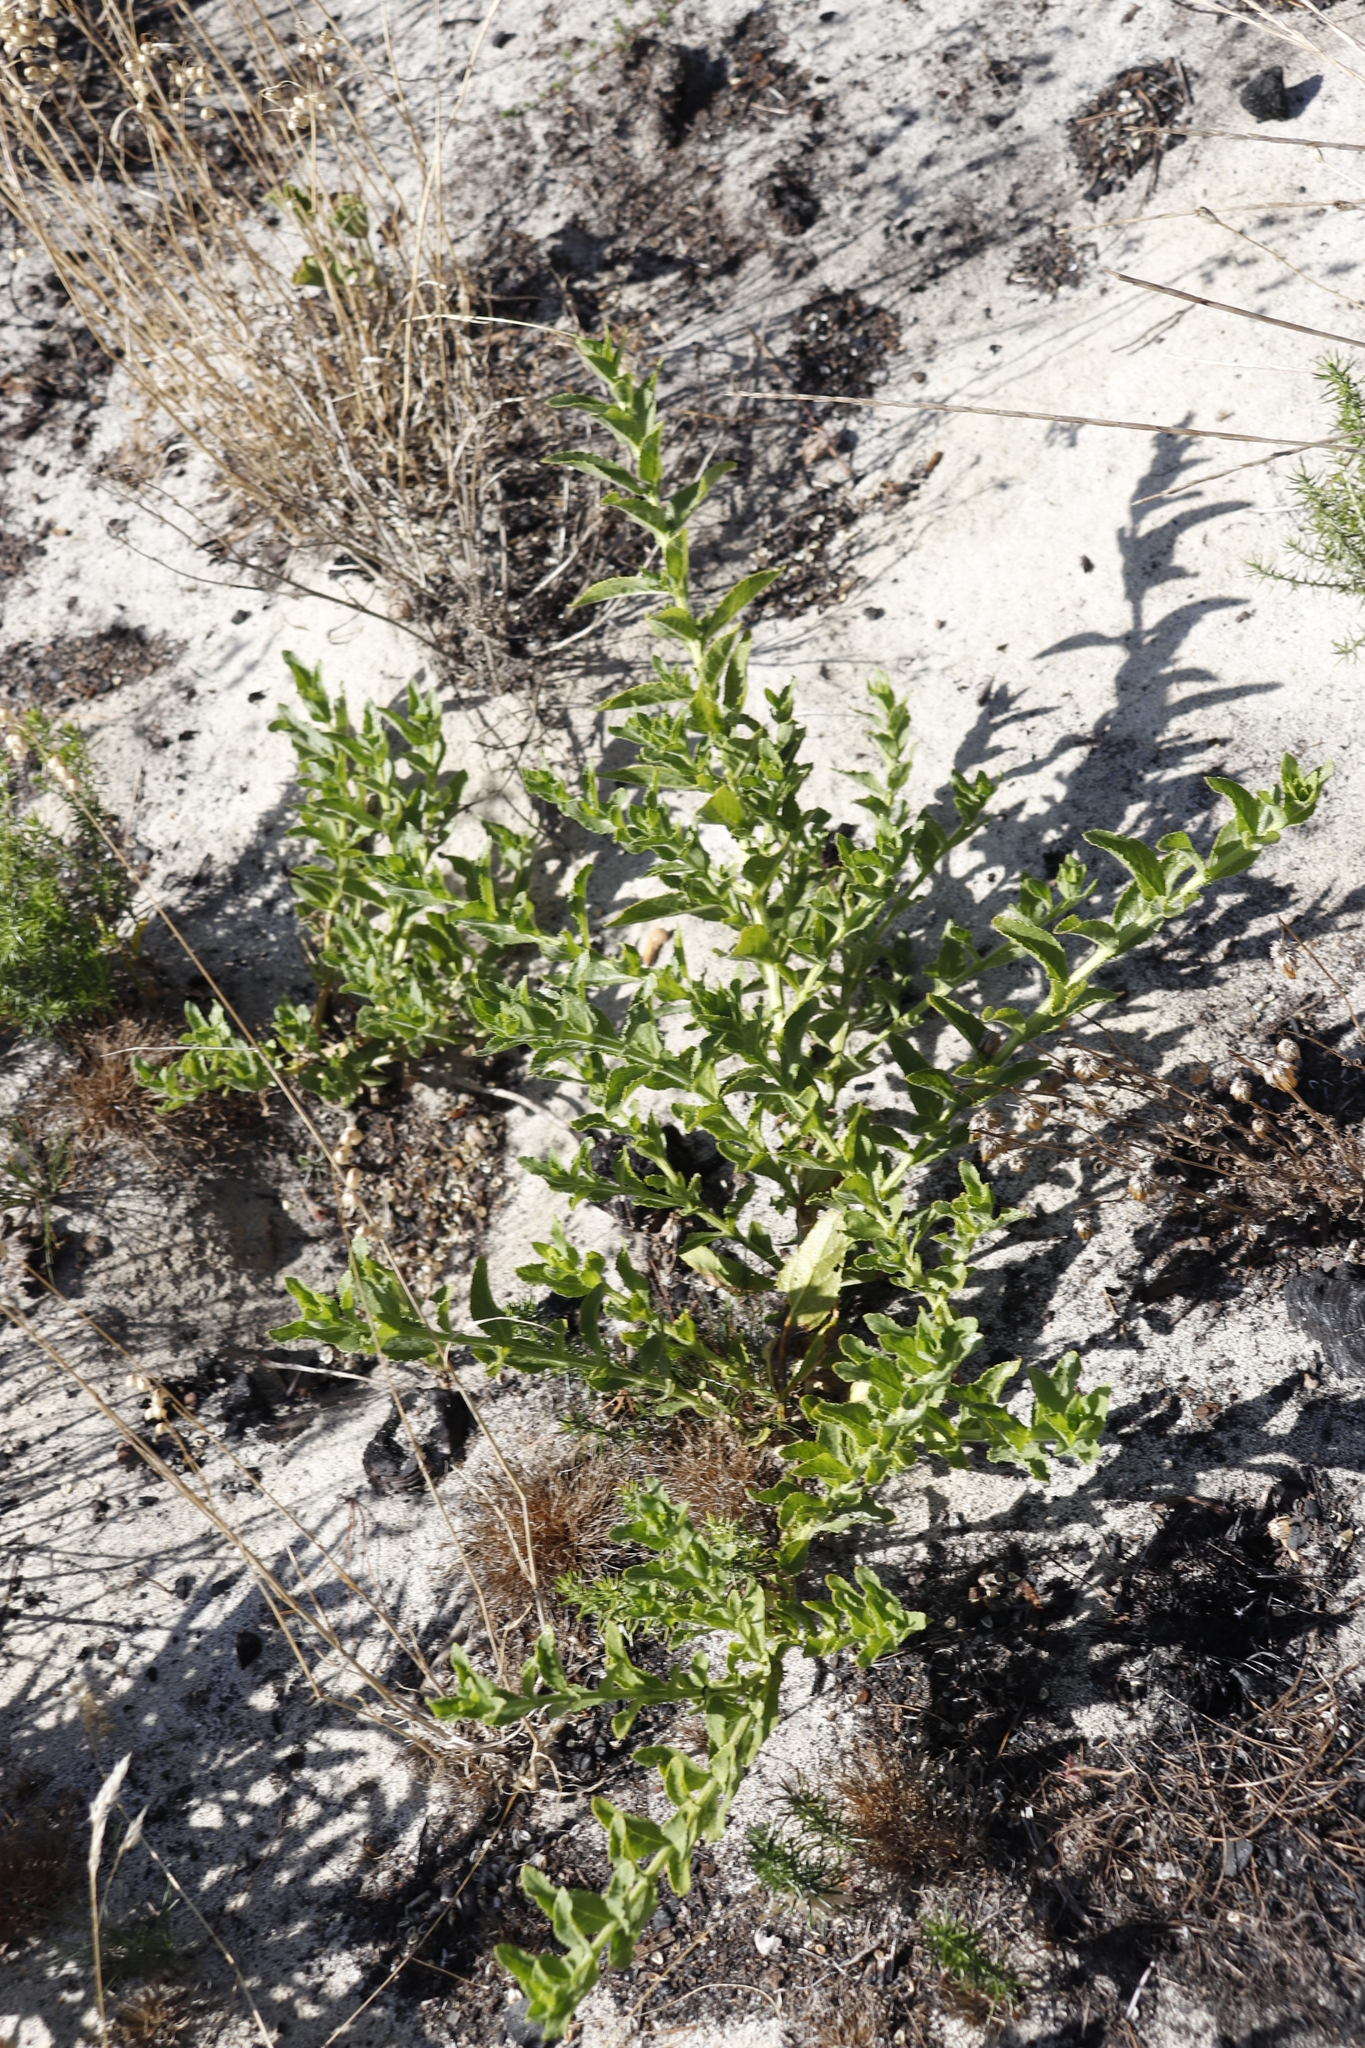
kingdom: Plantae
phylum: Tracheophyta
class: Magnoliopsida
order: Lamiales
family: Scrophulariaceae
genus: Oftia
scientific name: Oftia africana
